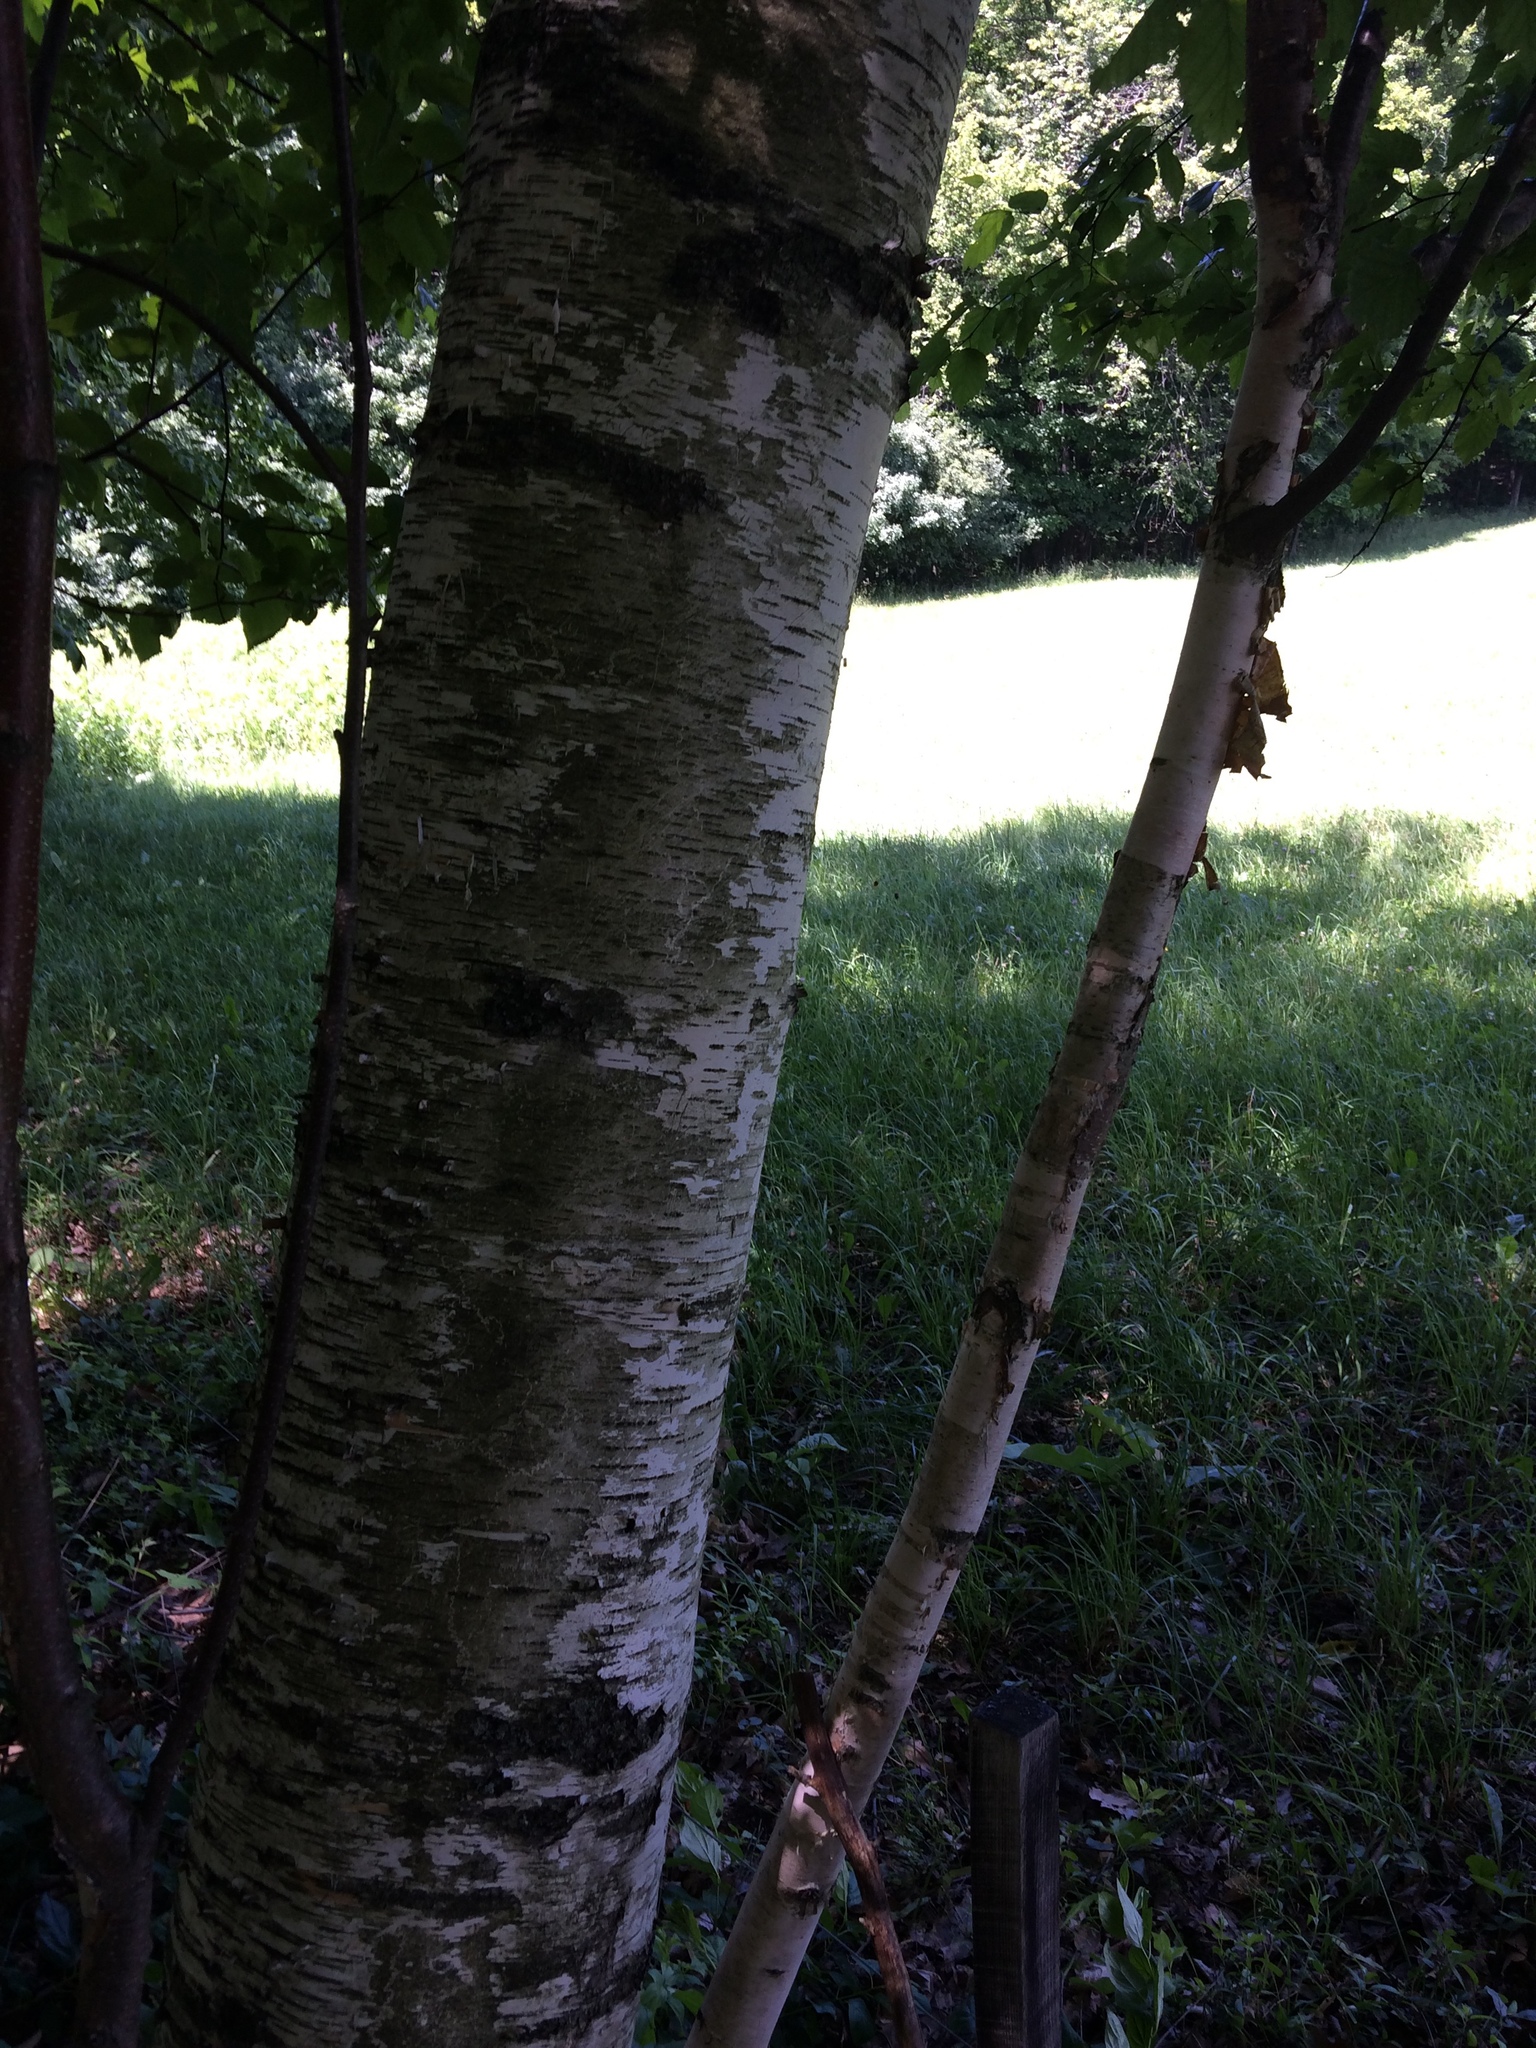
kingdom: Plantae
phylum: Tracheophyta
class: Magnoliopsida
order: Fagales
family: Betulaceae
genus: Betula
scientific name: Betula papyrifera
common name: Paper birch
